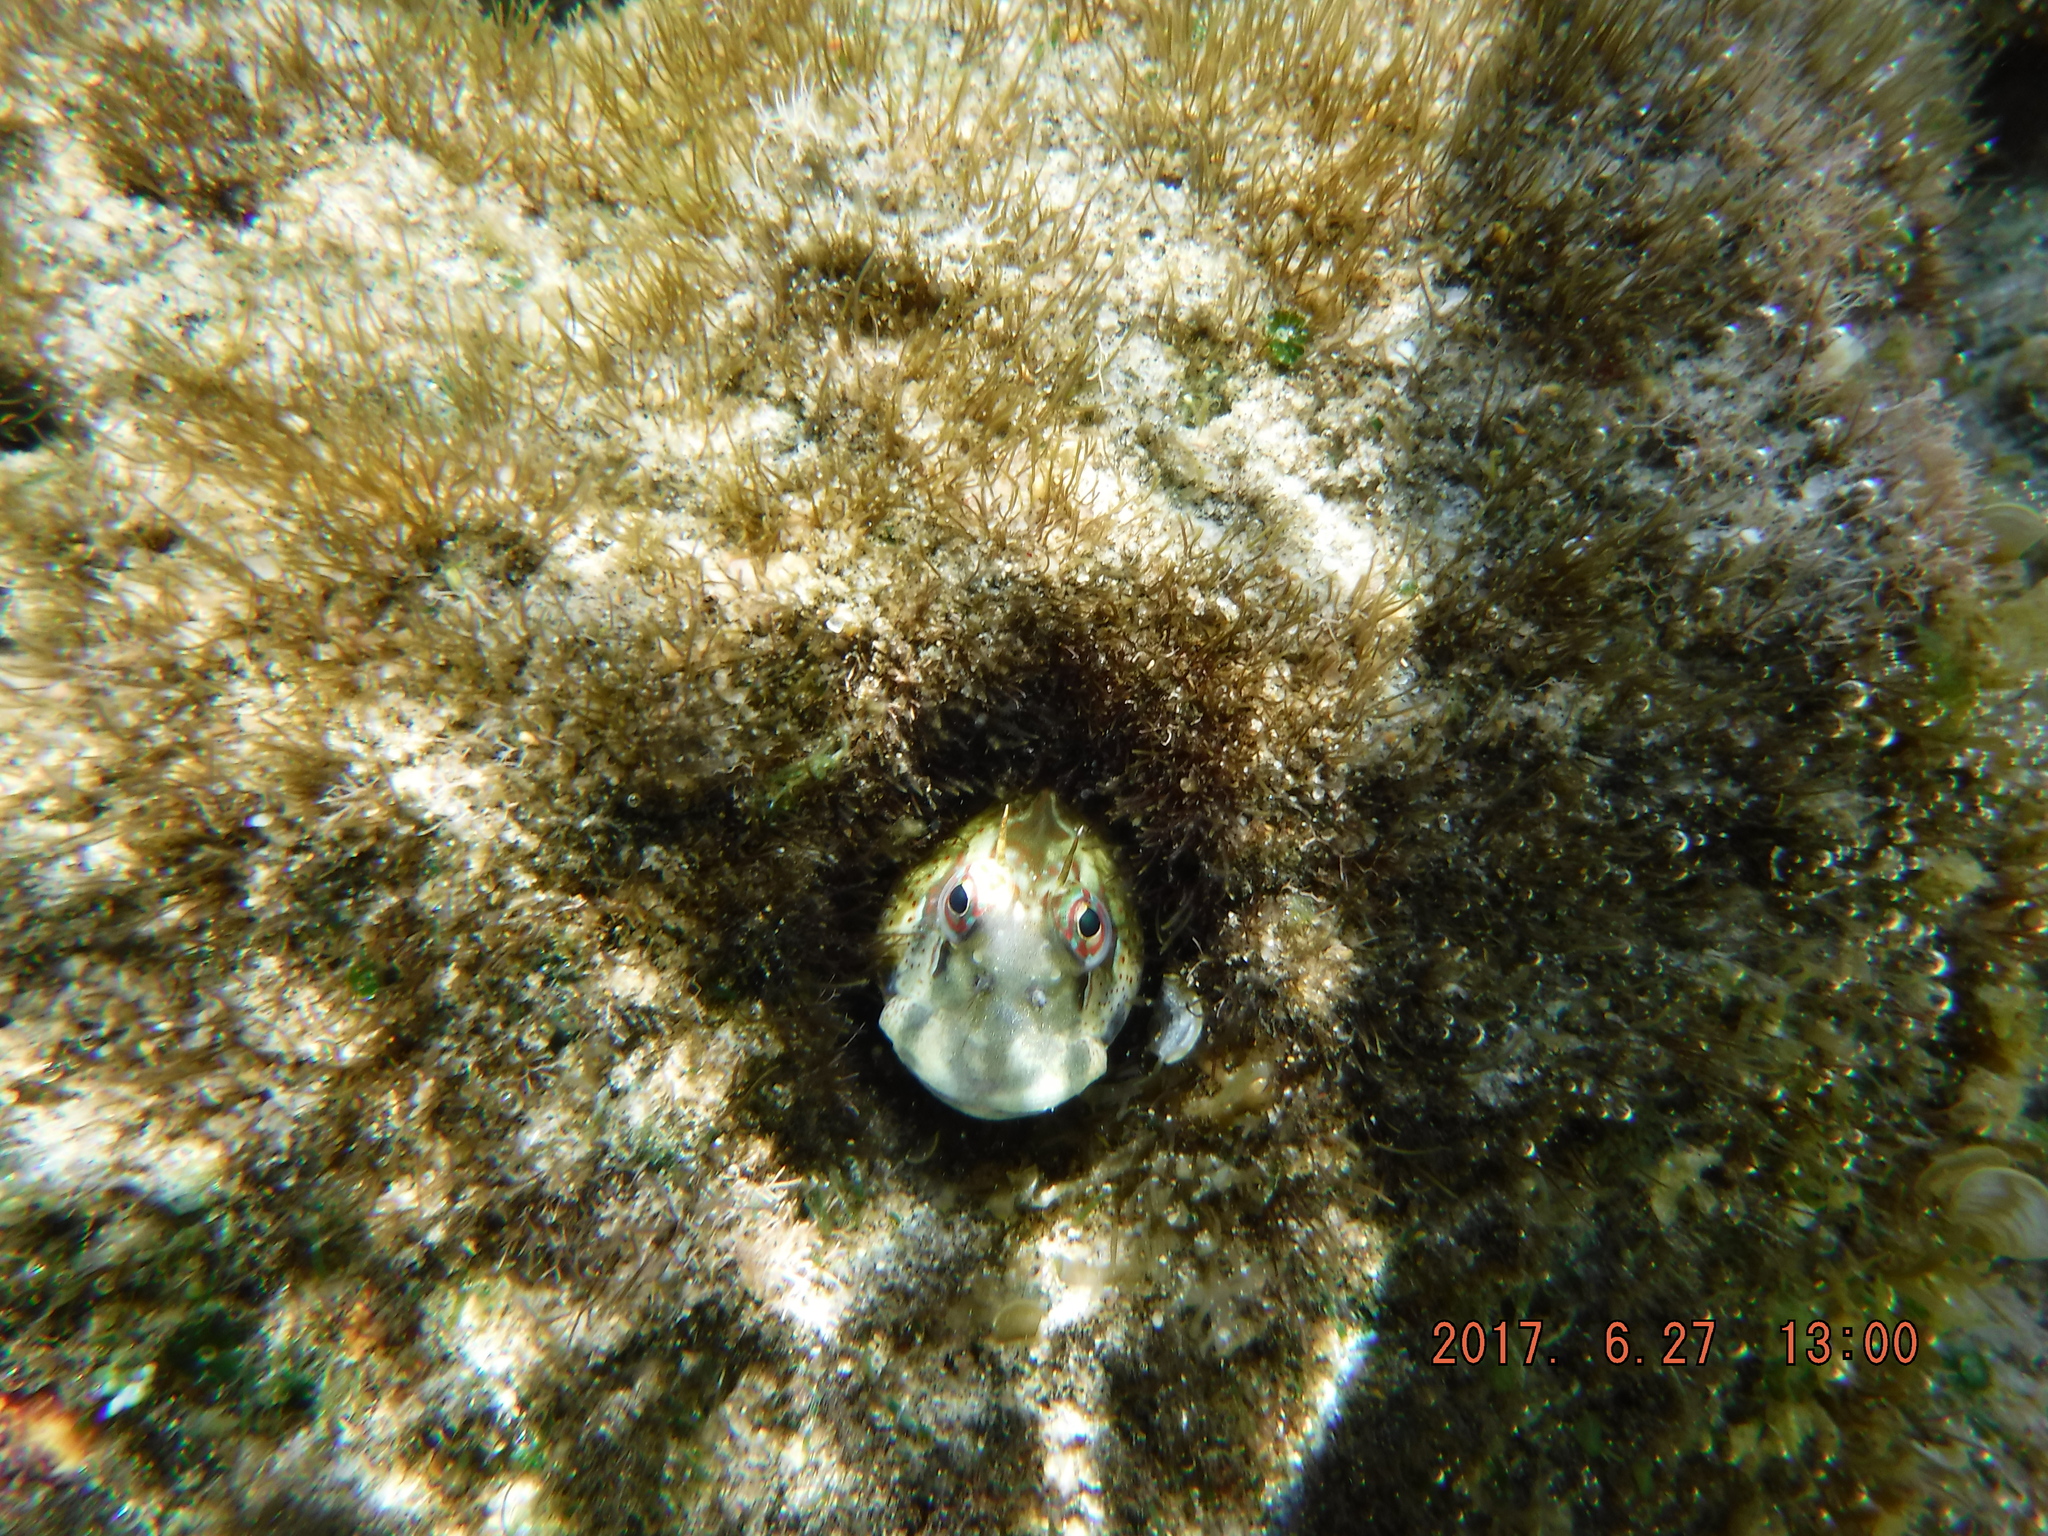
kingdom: Animalia
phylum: Chordata
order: Perciformes
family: Blenniidae
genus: Blenniella
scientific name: Blenniella periophthalmus
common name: Blue-dashed rockskipper
